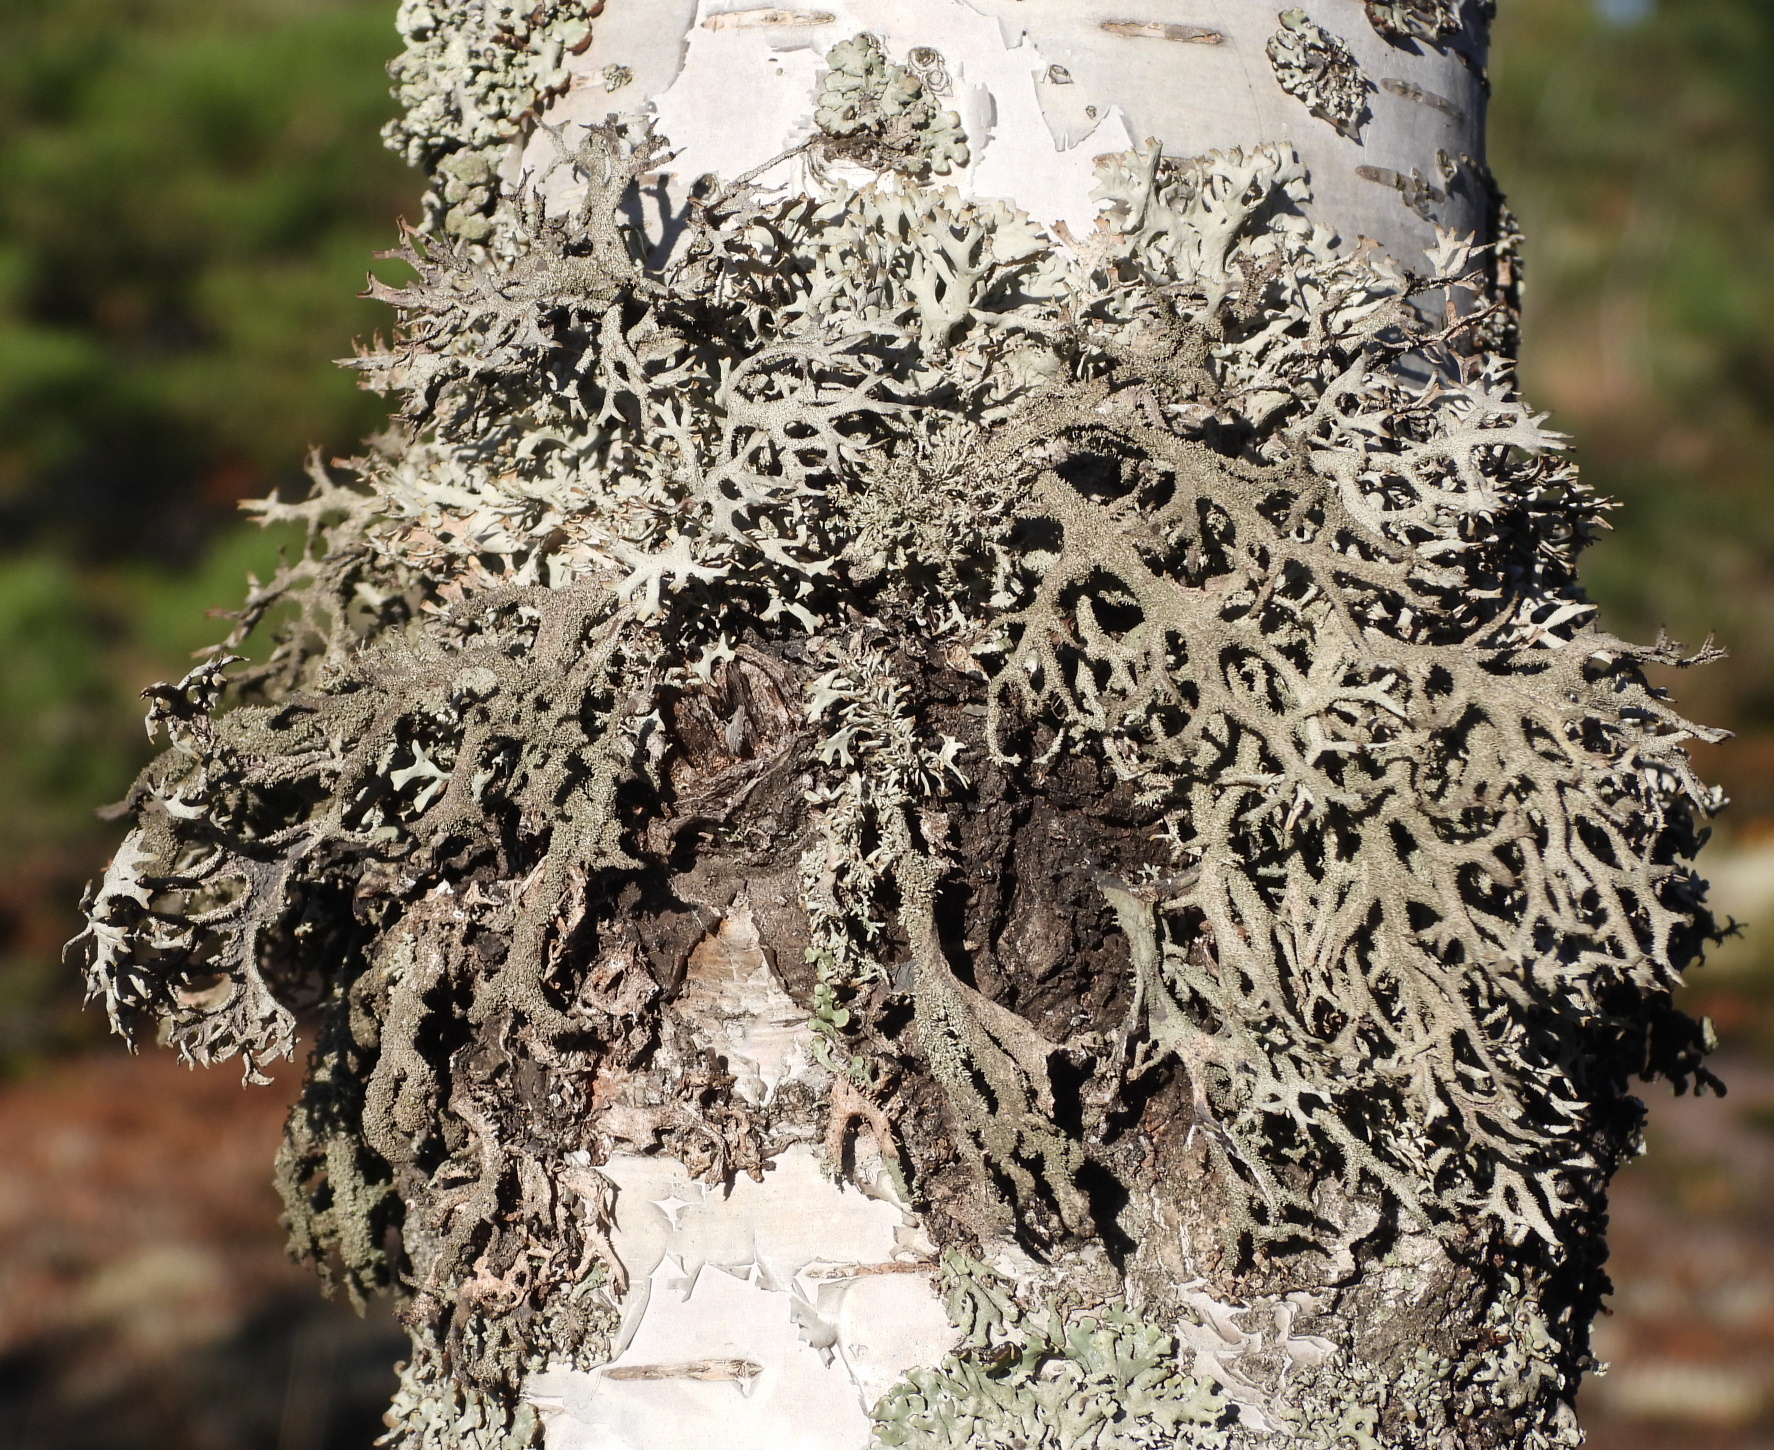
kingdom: Fungi
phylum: Ascomycota
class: Lecanoromycetes
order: Lecanorales
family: Parmeliaceae
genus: Pseudevernia
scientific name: Pseudevernia furfuracea
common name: Tree moss
